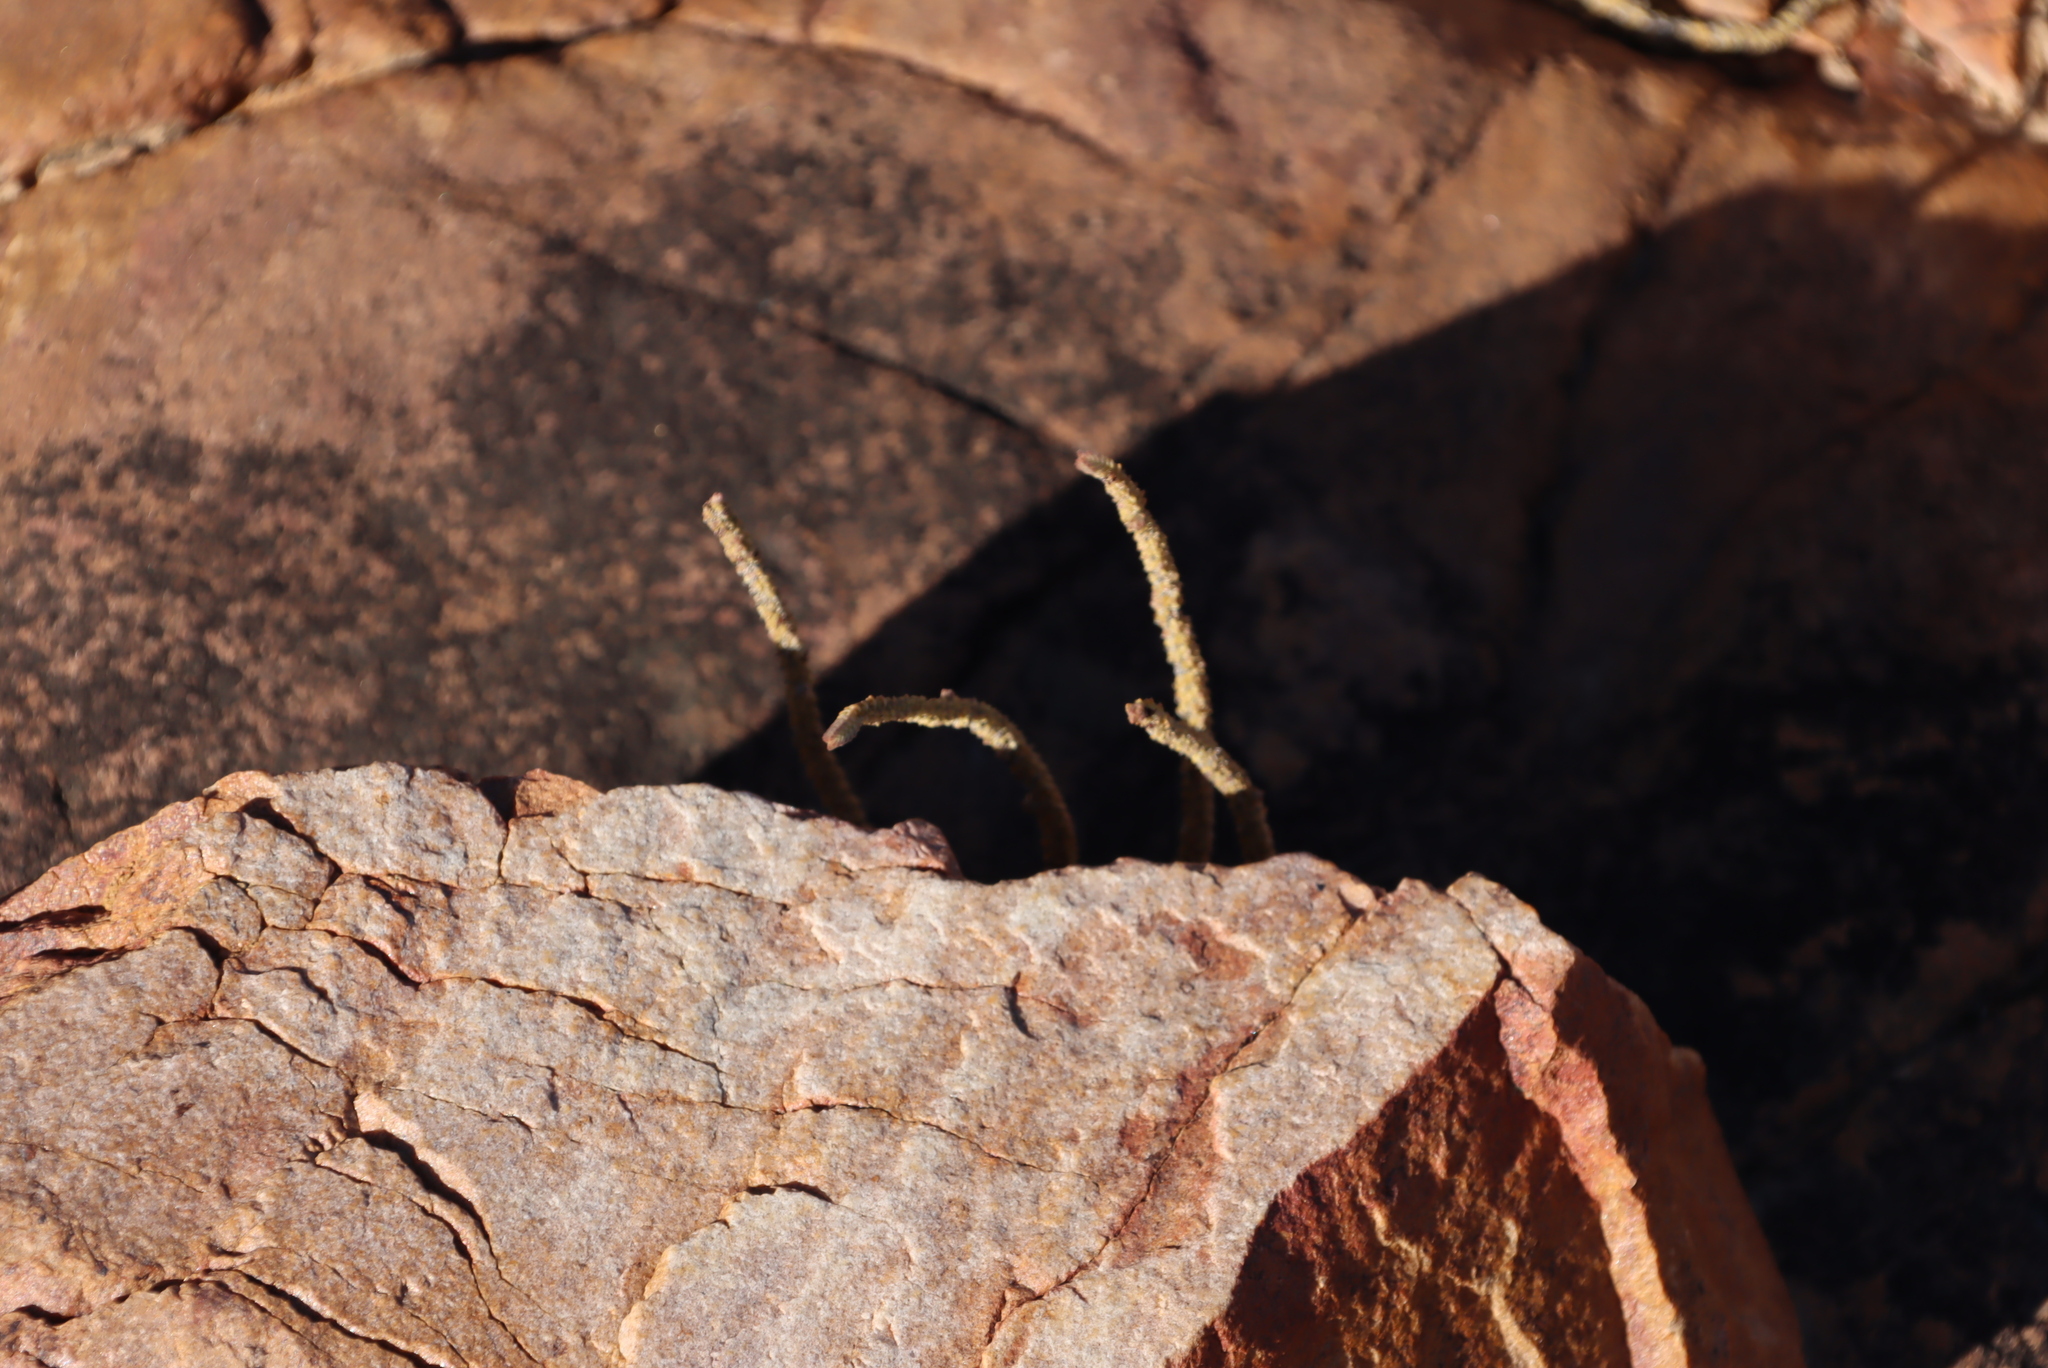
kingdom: Plantae
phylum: Tracheophyta
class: Magnoliopsida
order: Saxifragales
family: Crassulaceae
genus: Crassula
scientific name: Crassula muscosa
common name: Toy-cypress
